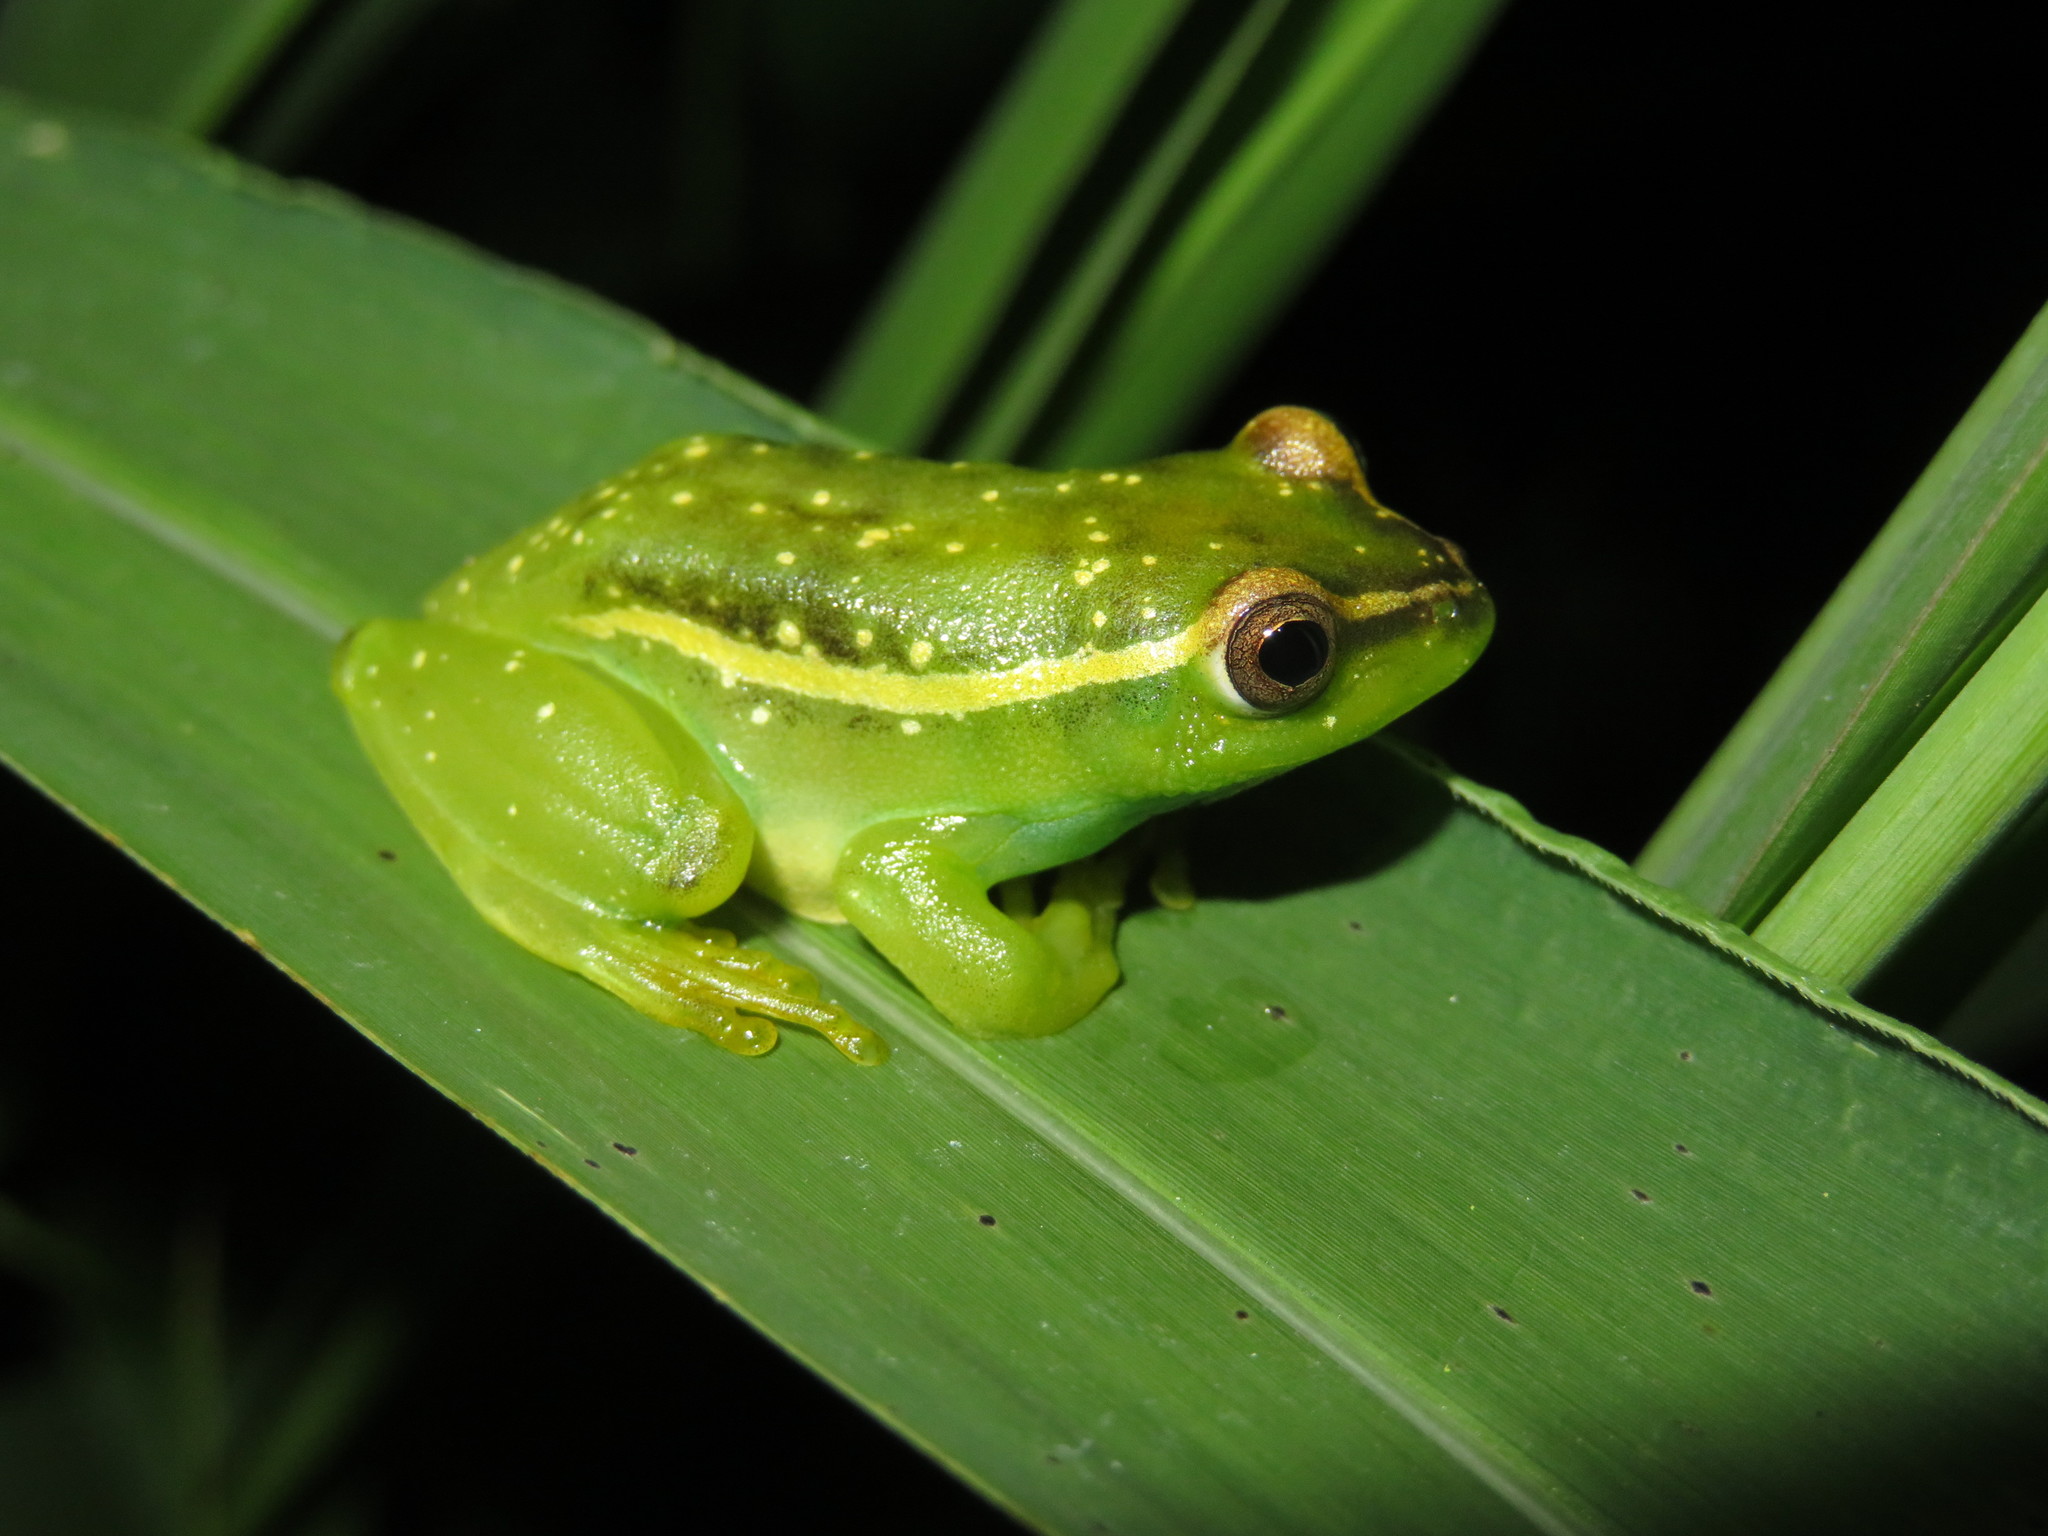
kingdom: Animalia
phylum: Chordata
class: Amphibia
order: Anura
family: Hyperoliidae
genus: Hyperolius
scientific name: Hyperolius argus
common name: Argus reed frog
